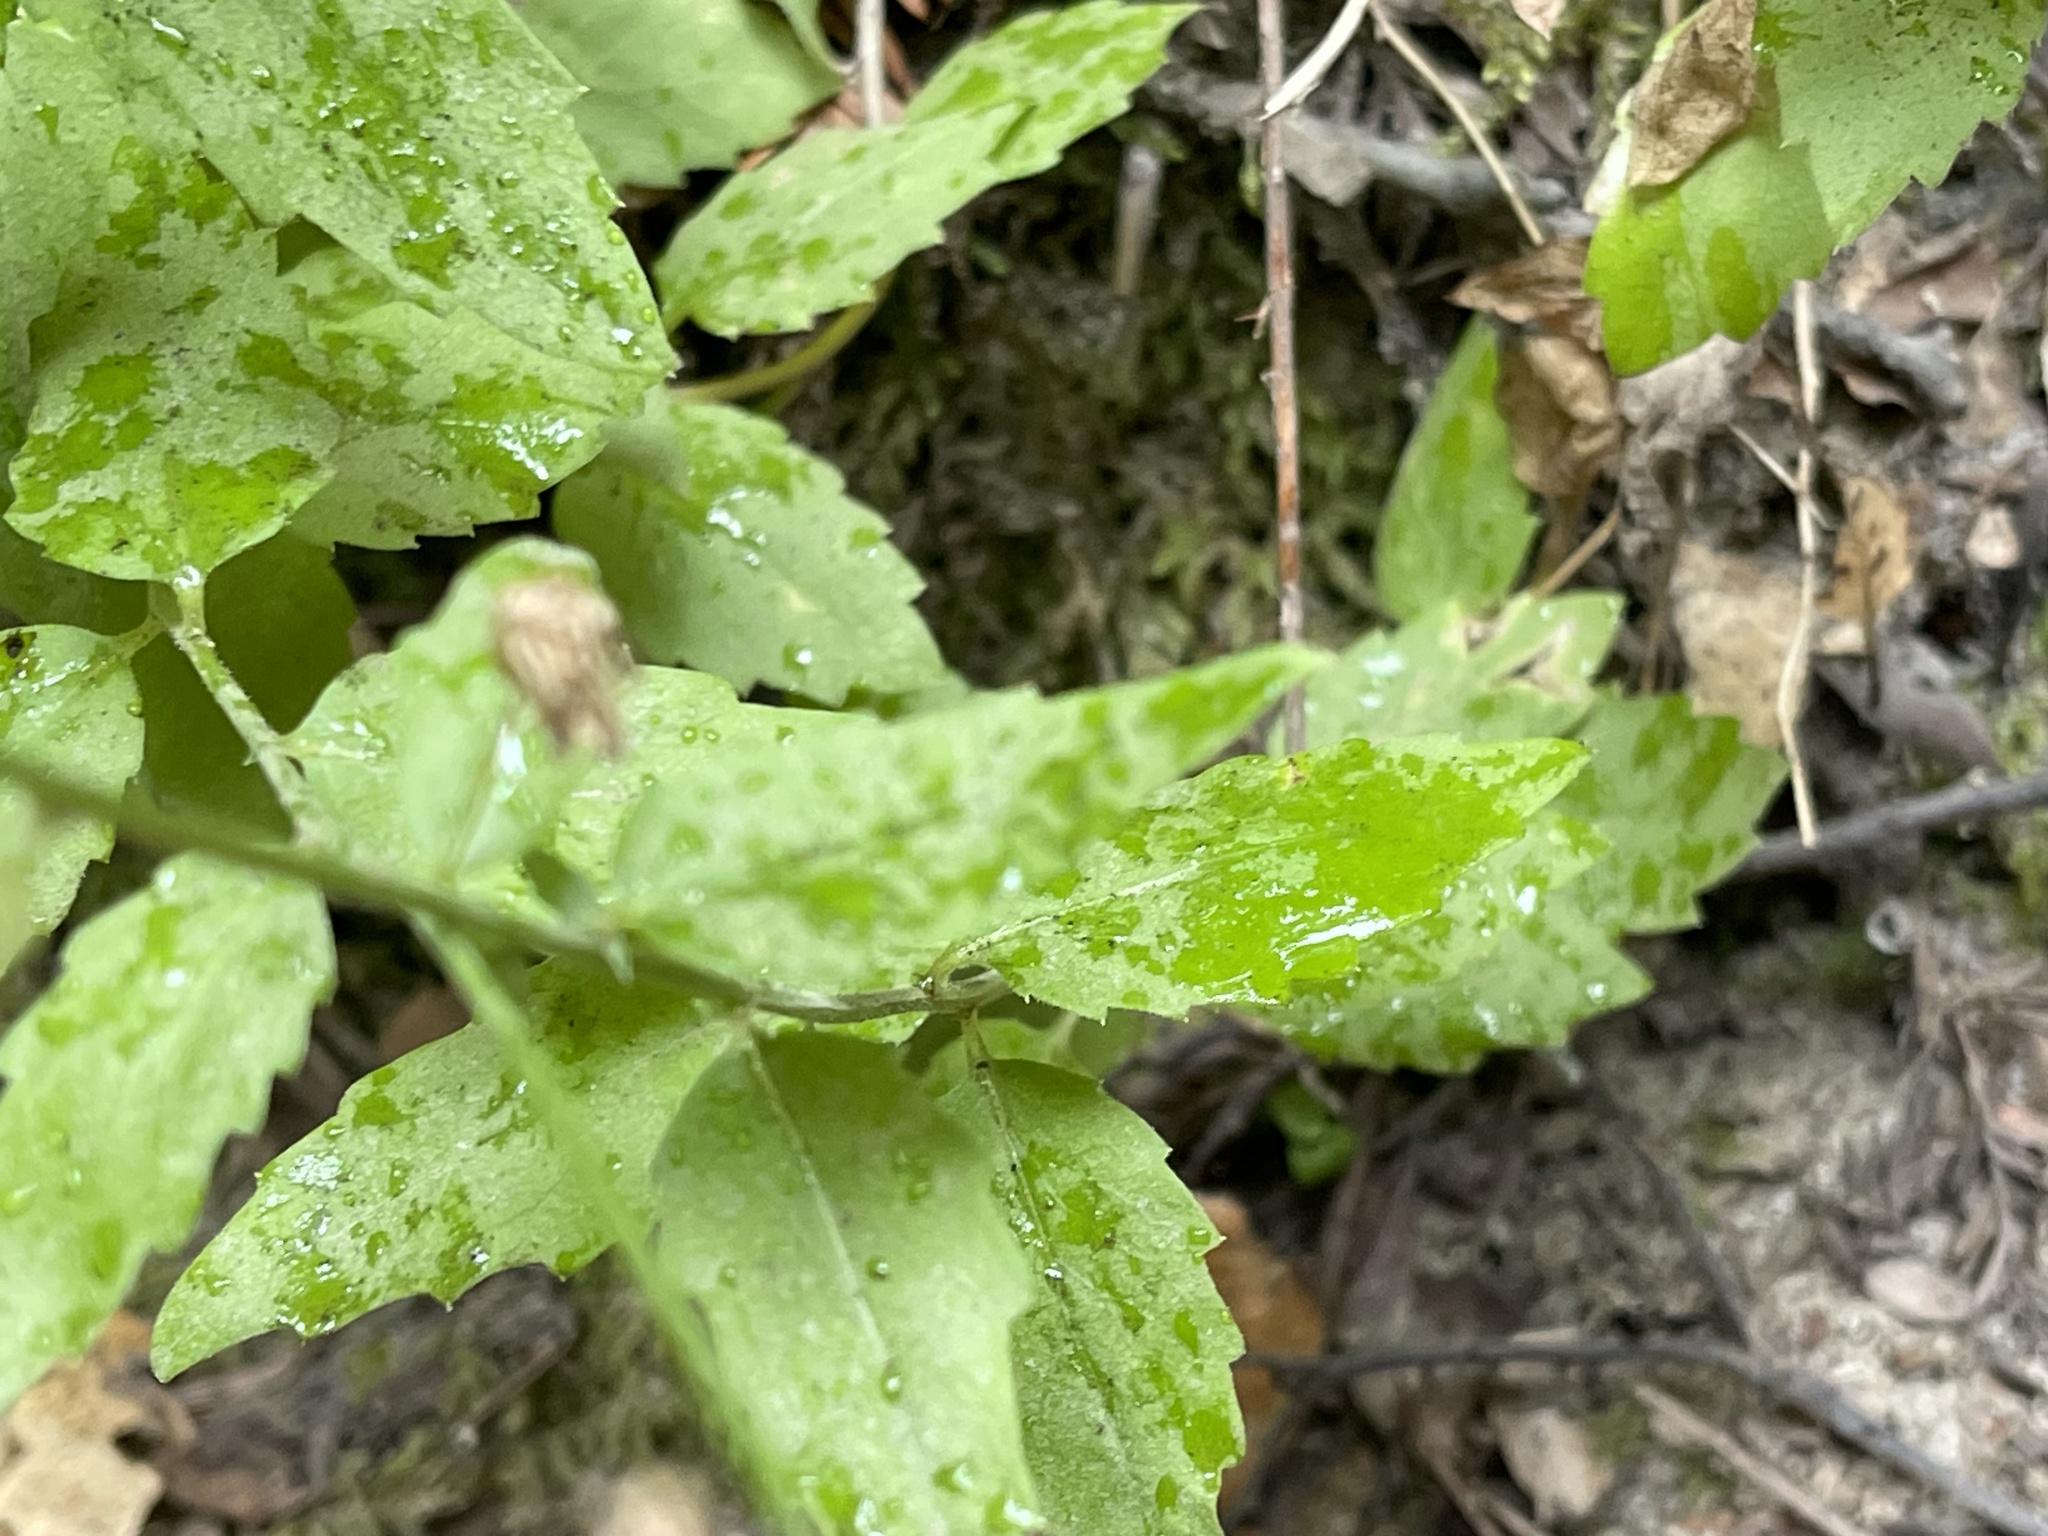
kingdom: Plantae
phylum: Tracheophyta
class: Magnoliopsida
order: Asterales
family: Campanulaceae
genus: Smithiastrum
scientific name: Smithiastrum prenanthoides
